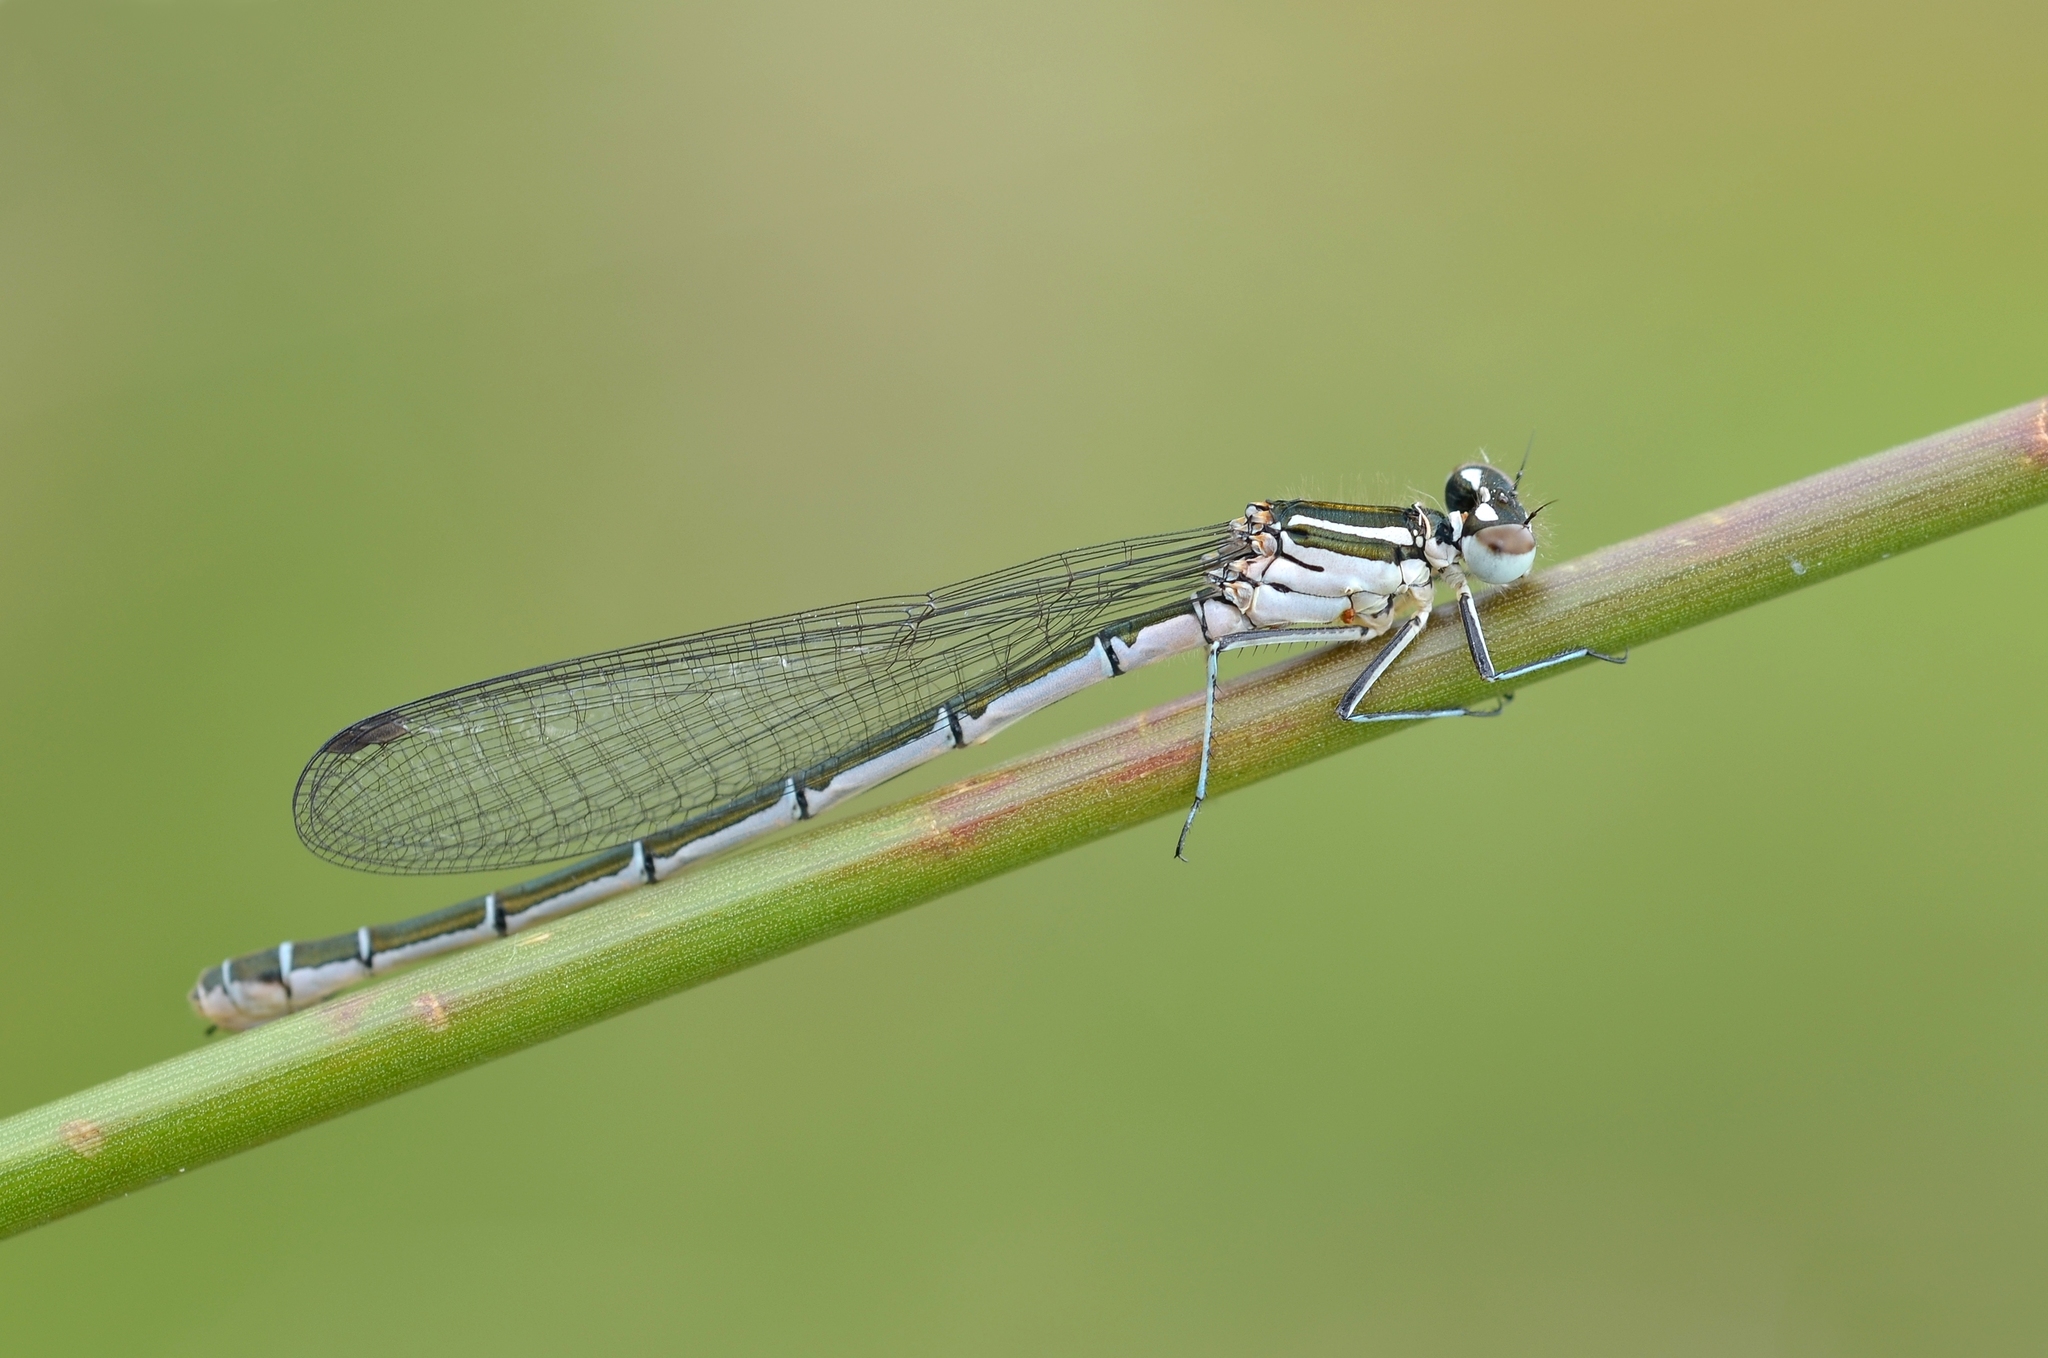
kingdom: Animalia
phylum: Arthropoda
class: Insecta
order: Odonata
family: Coenagrionidae
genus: Coenagrion
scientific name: Coenagrion hastulatum
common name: Spearhead bluet
